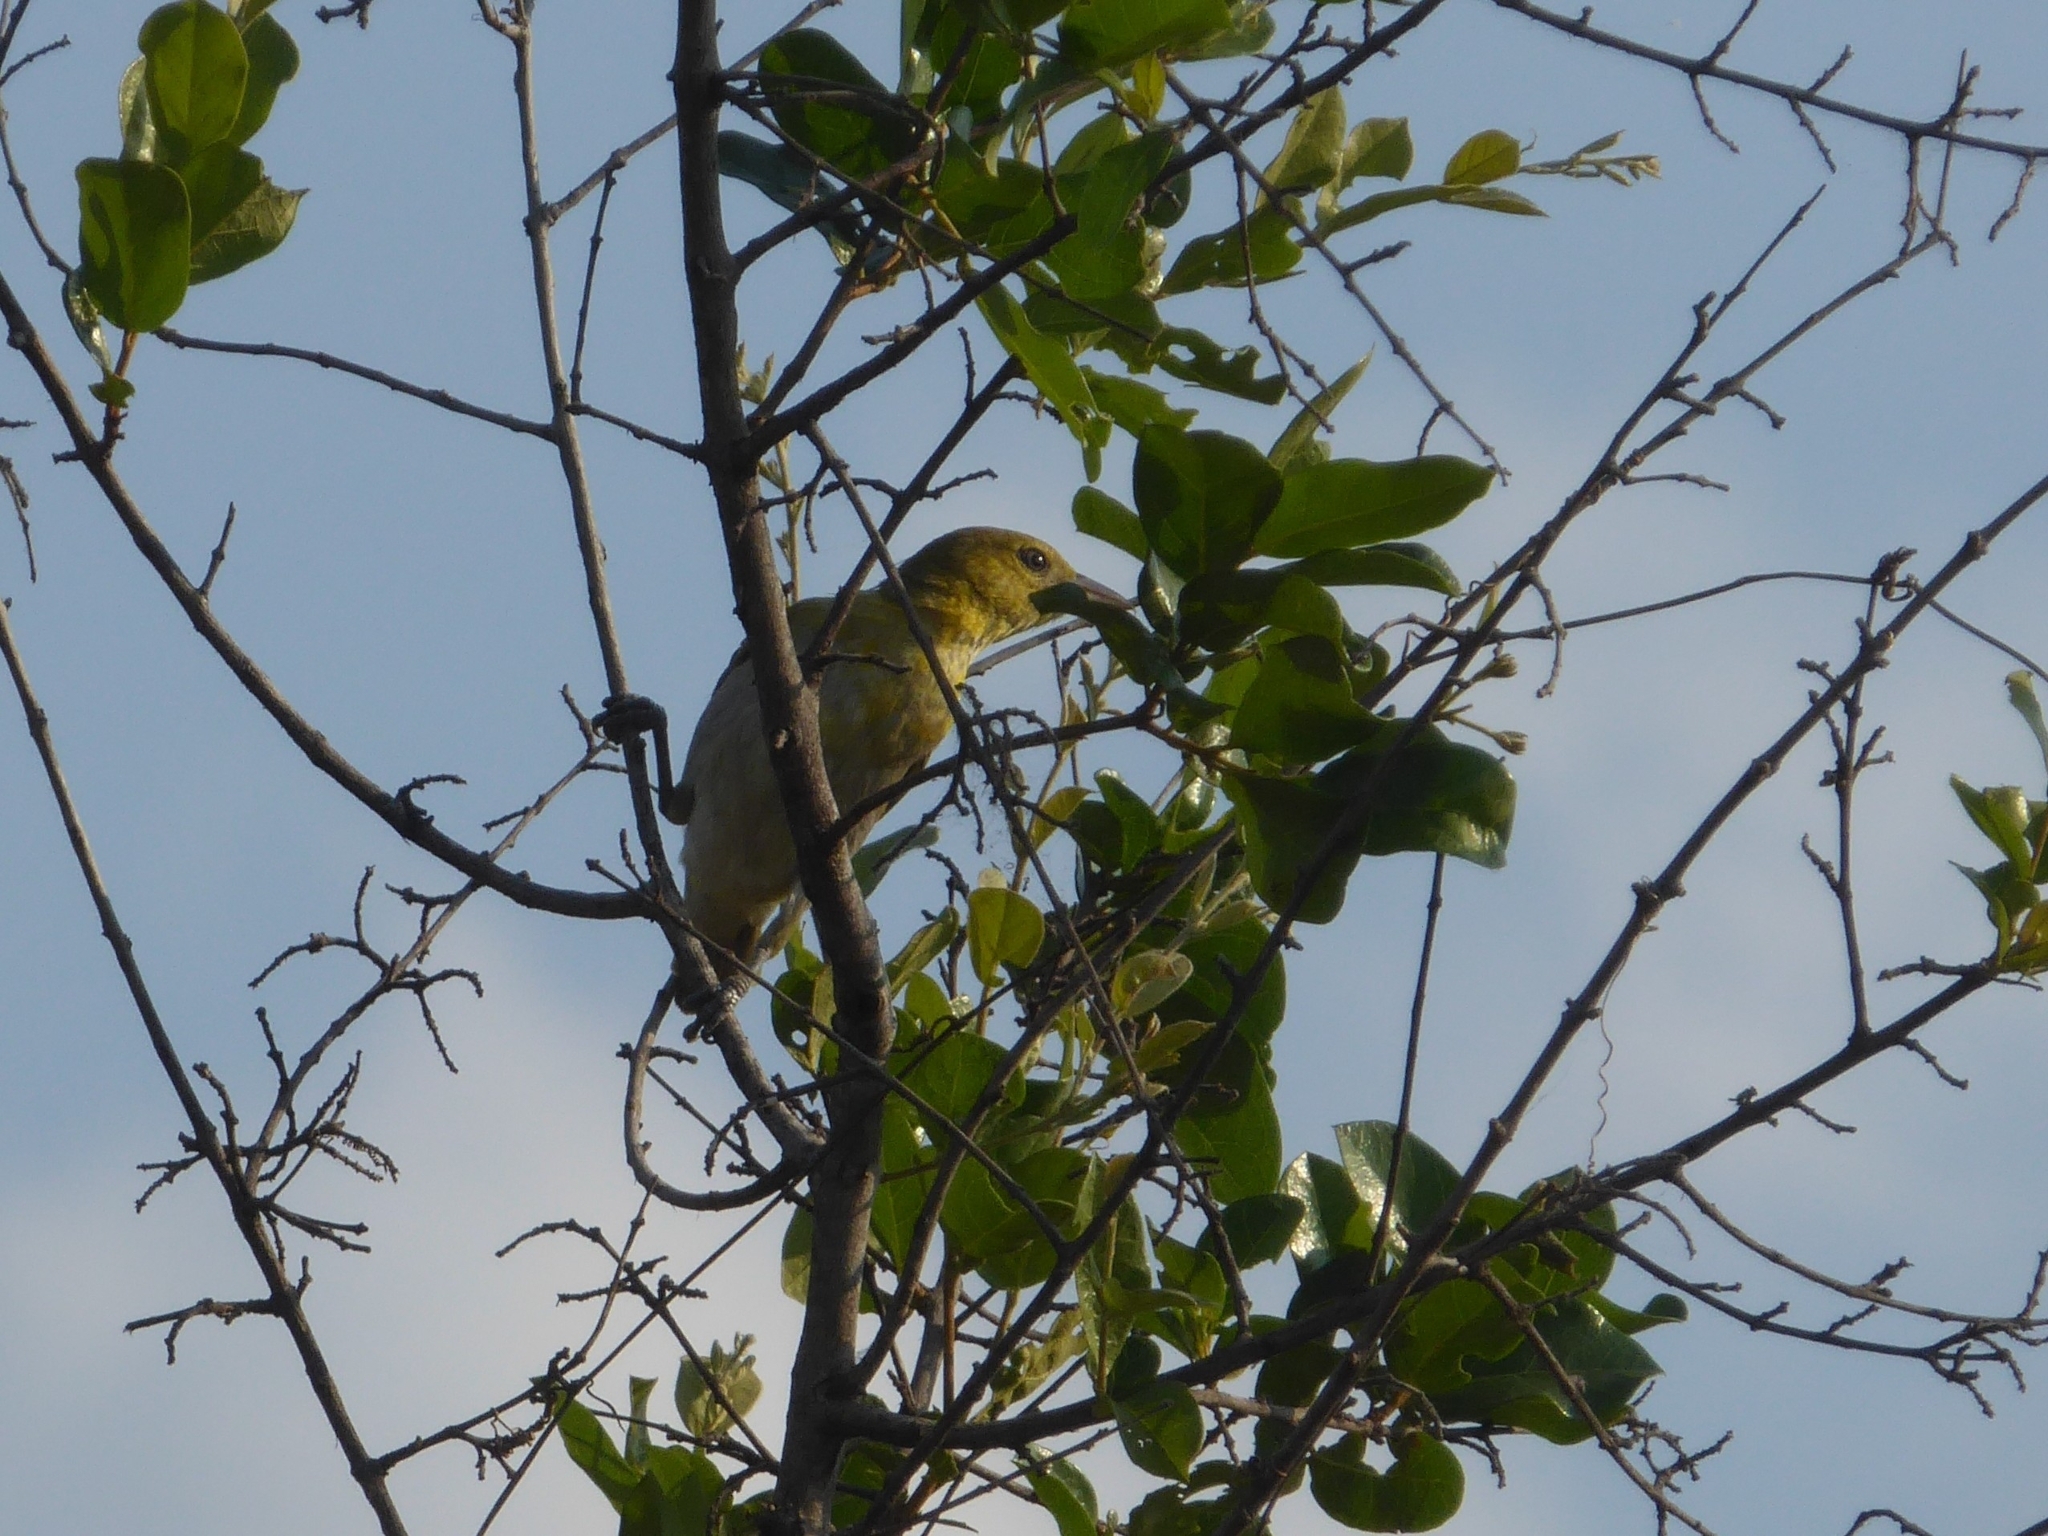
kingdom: Animalia
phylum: Chordata
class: Aves
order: Passeriformes
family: Ploceidae
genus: Ploceus
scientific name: Ploceus intermedius
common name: Lesser masked weaver
